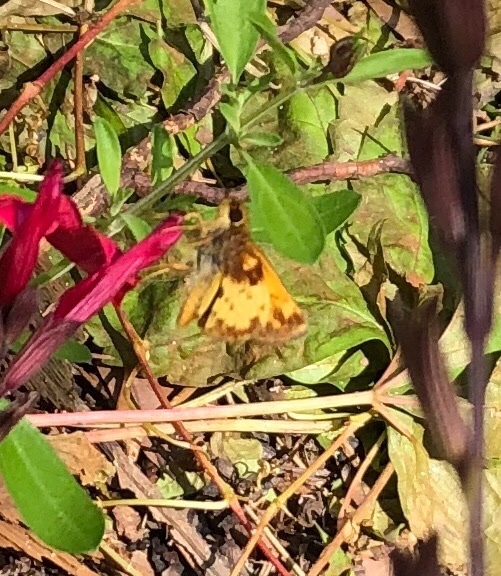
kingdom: Animalia
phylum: Arthropoda
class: Insecta
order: Lepidoptera
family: Hesperiidae
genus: Lon
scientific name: Lon zabulon
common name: Zabulon skipper
